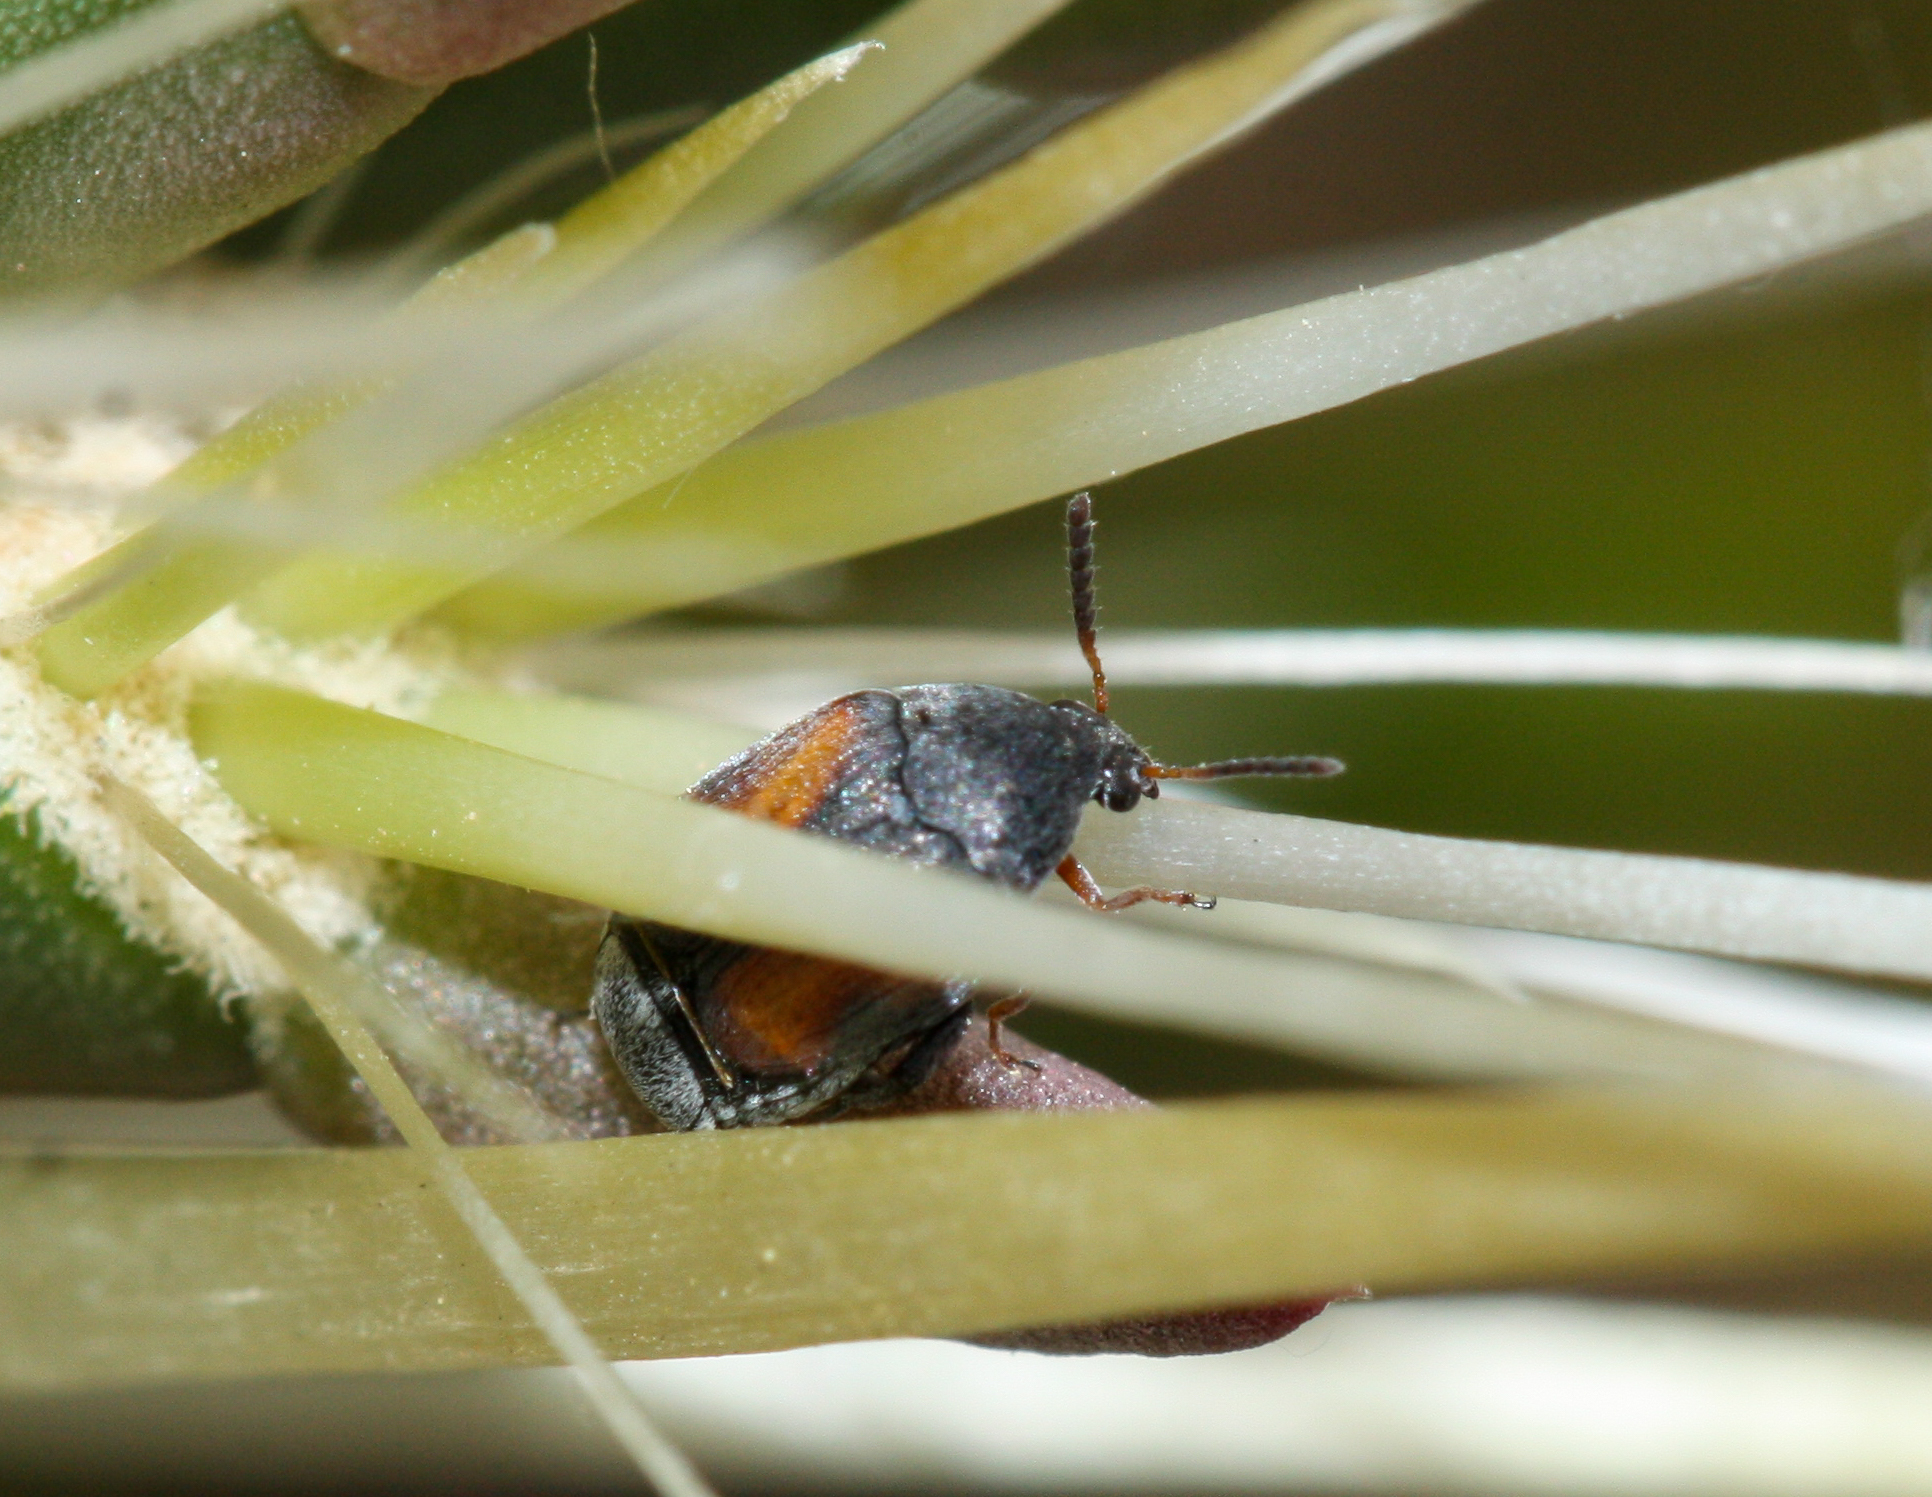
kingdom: Animalia
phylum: Arthropoda
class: Insecta
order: Coleoptera
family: Chrysomelidae
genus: Stator
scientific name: Stator limbatus
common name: Leaf beetle
